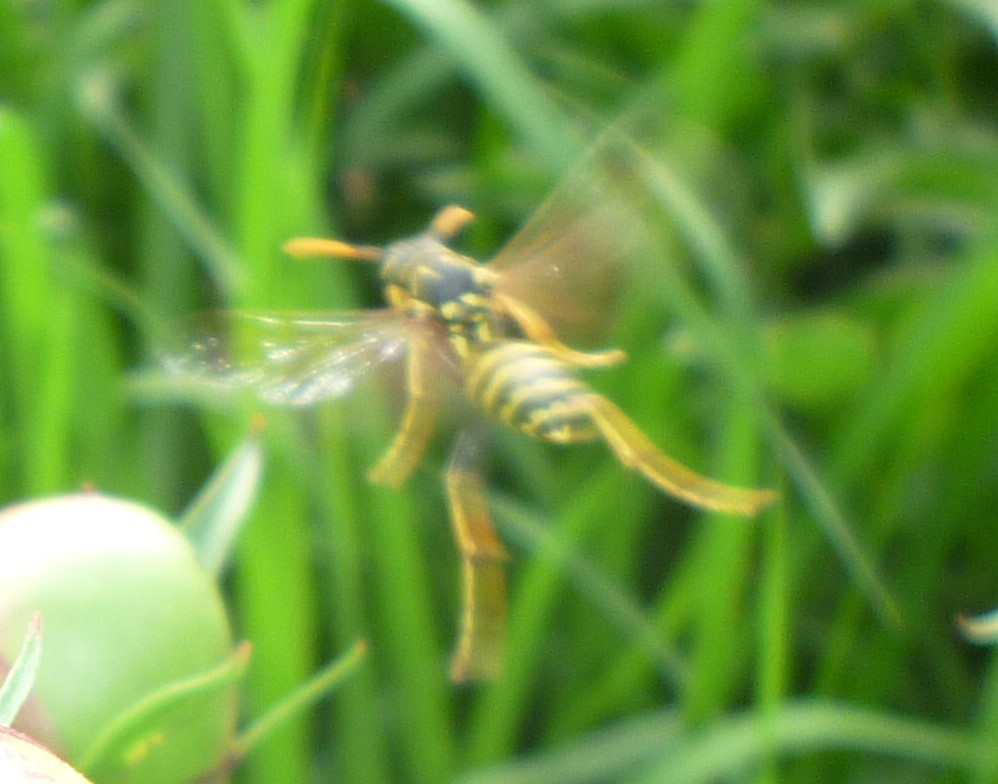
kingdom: Animalia
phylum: Arthropoda
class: Insecta
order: Hymenoptera
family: Eumenidae
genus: Polistes
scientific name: Polistes dominula
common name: Paper wasp
